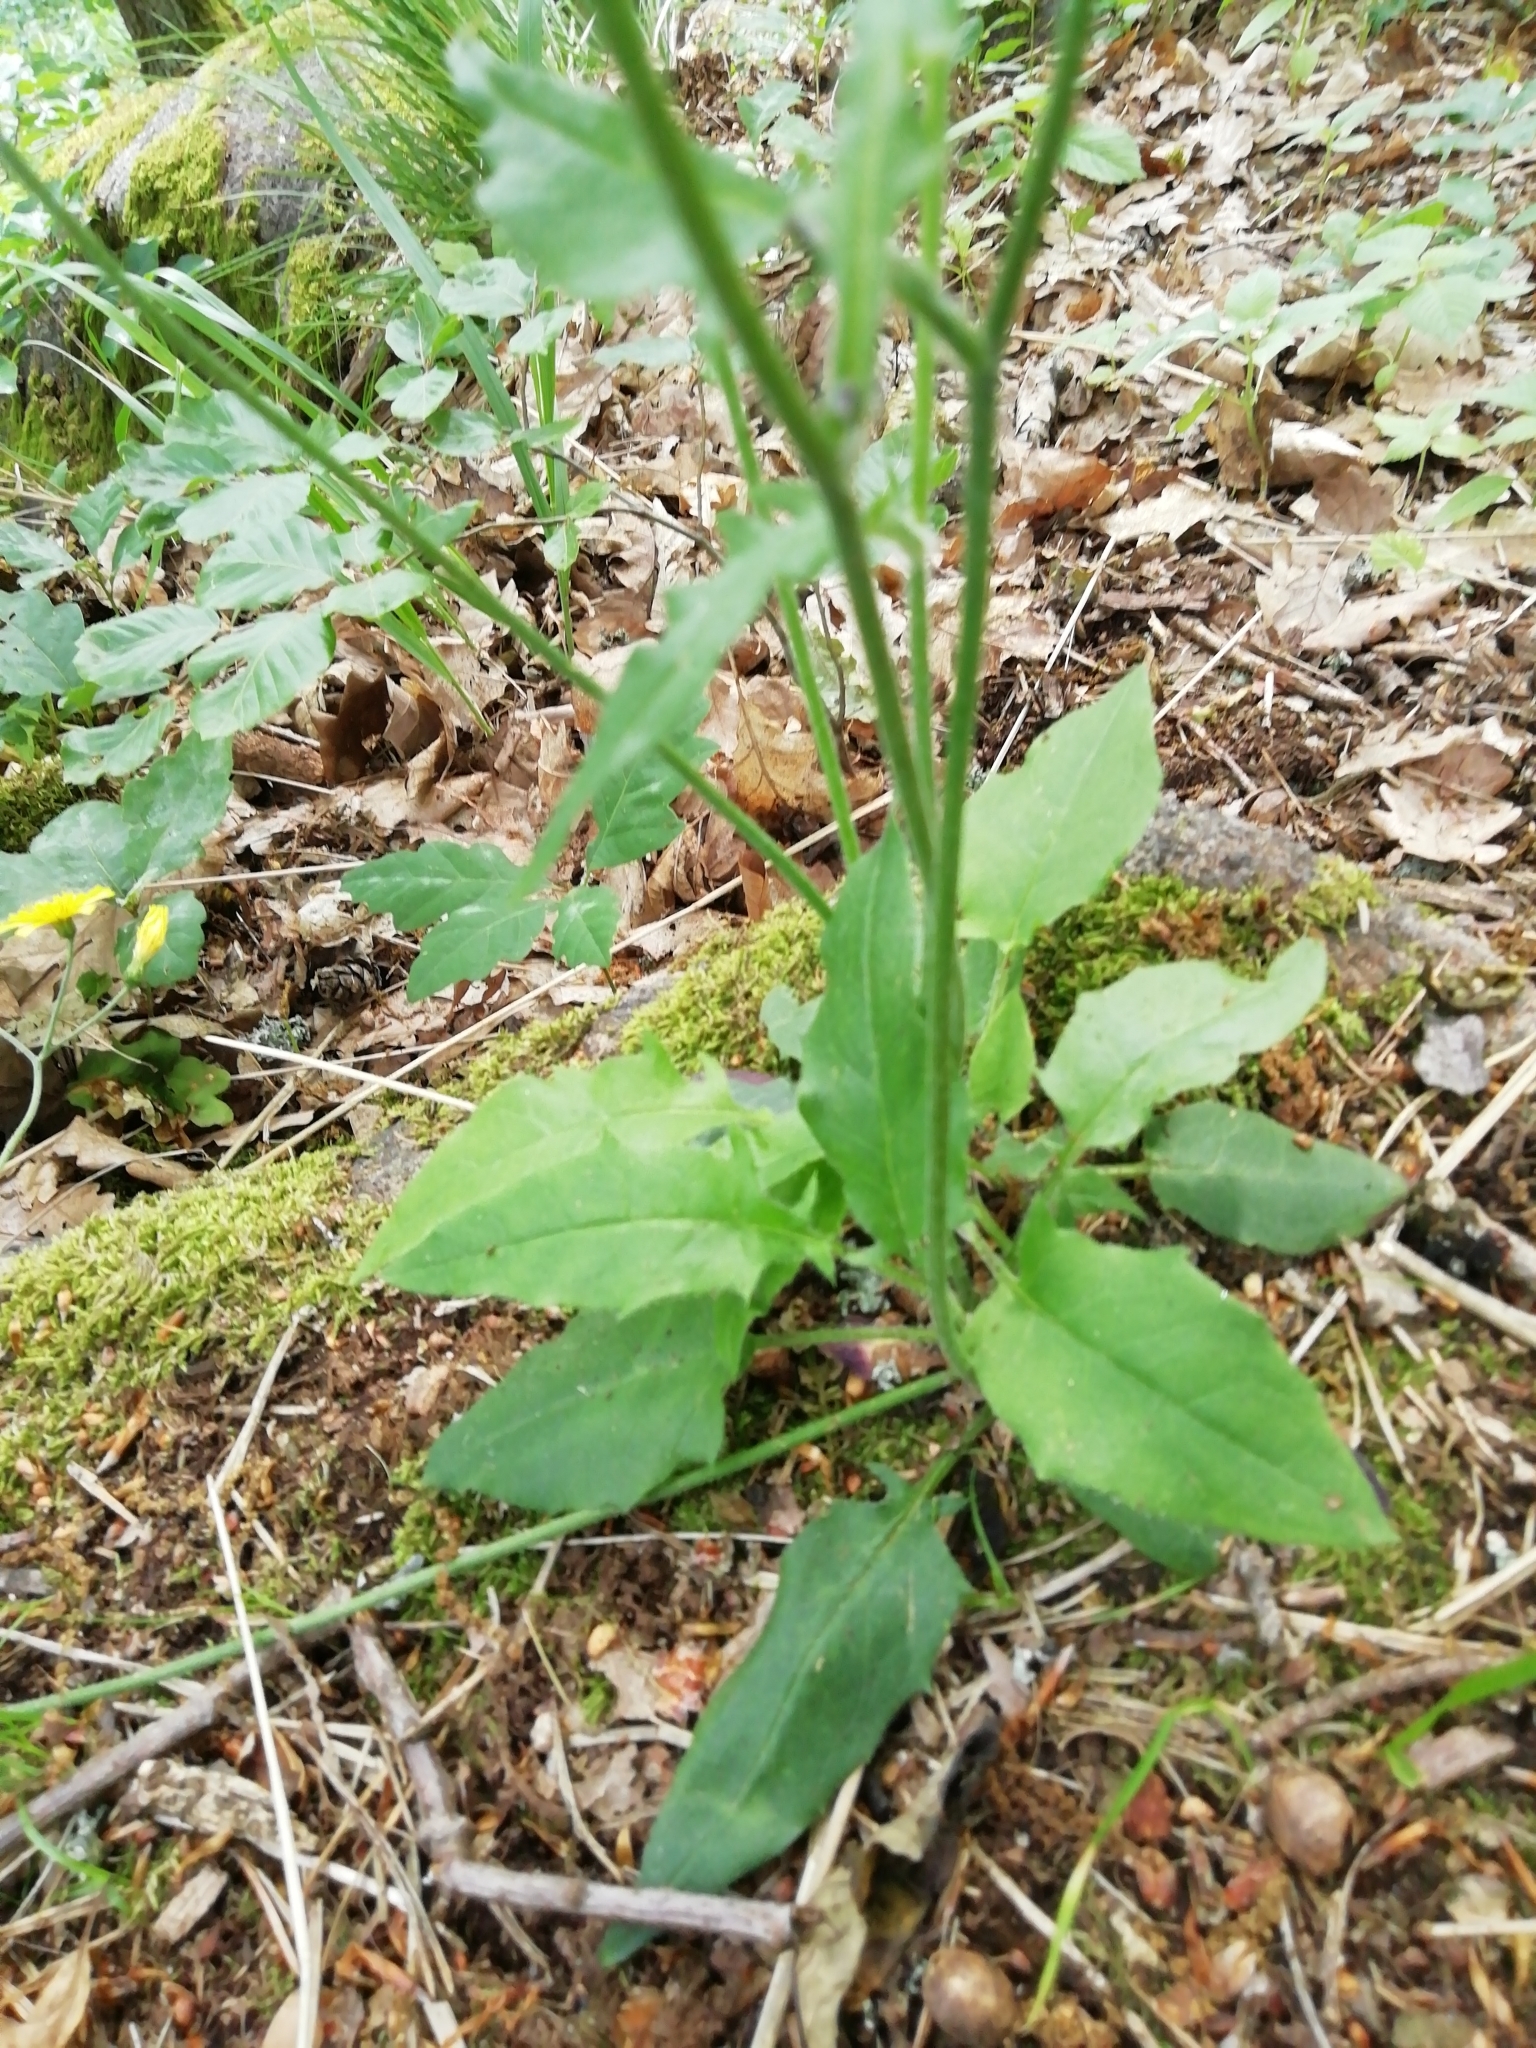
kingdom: Plantae
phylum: Tracheophyta
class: Magnoliopsida
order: Asterales
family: Asteraceae
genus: Hieracium
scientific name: Hieracium murorum
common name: Wall hawkweed
